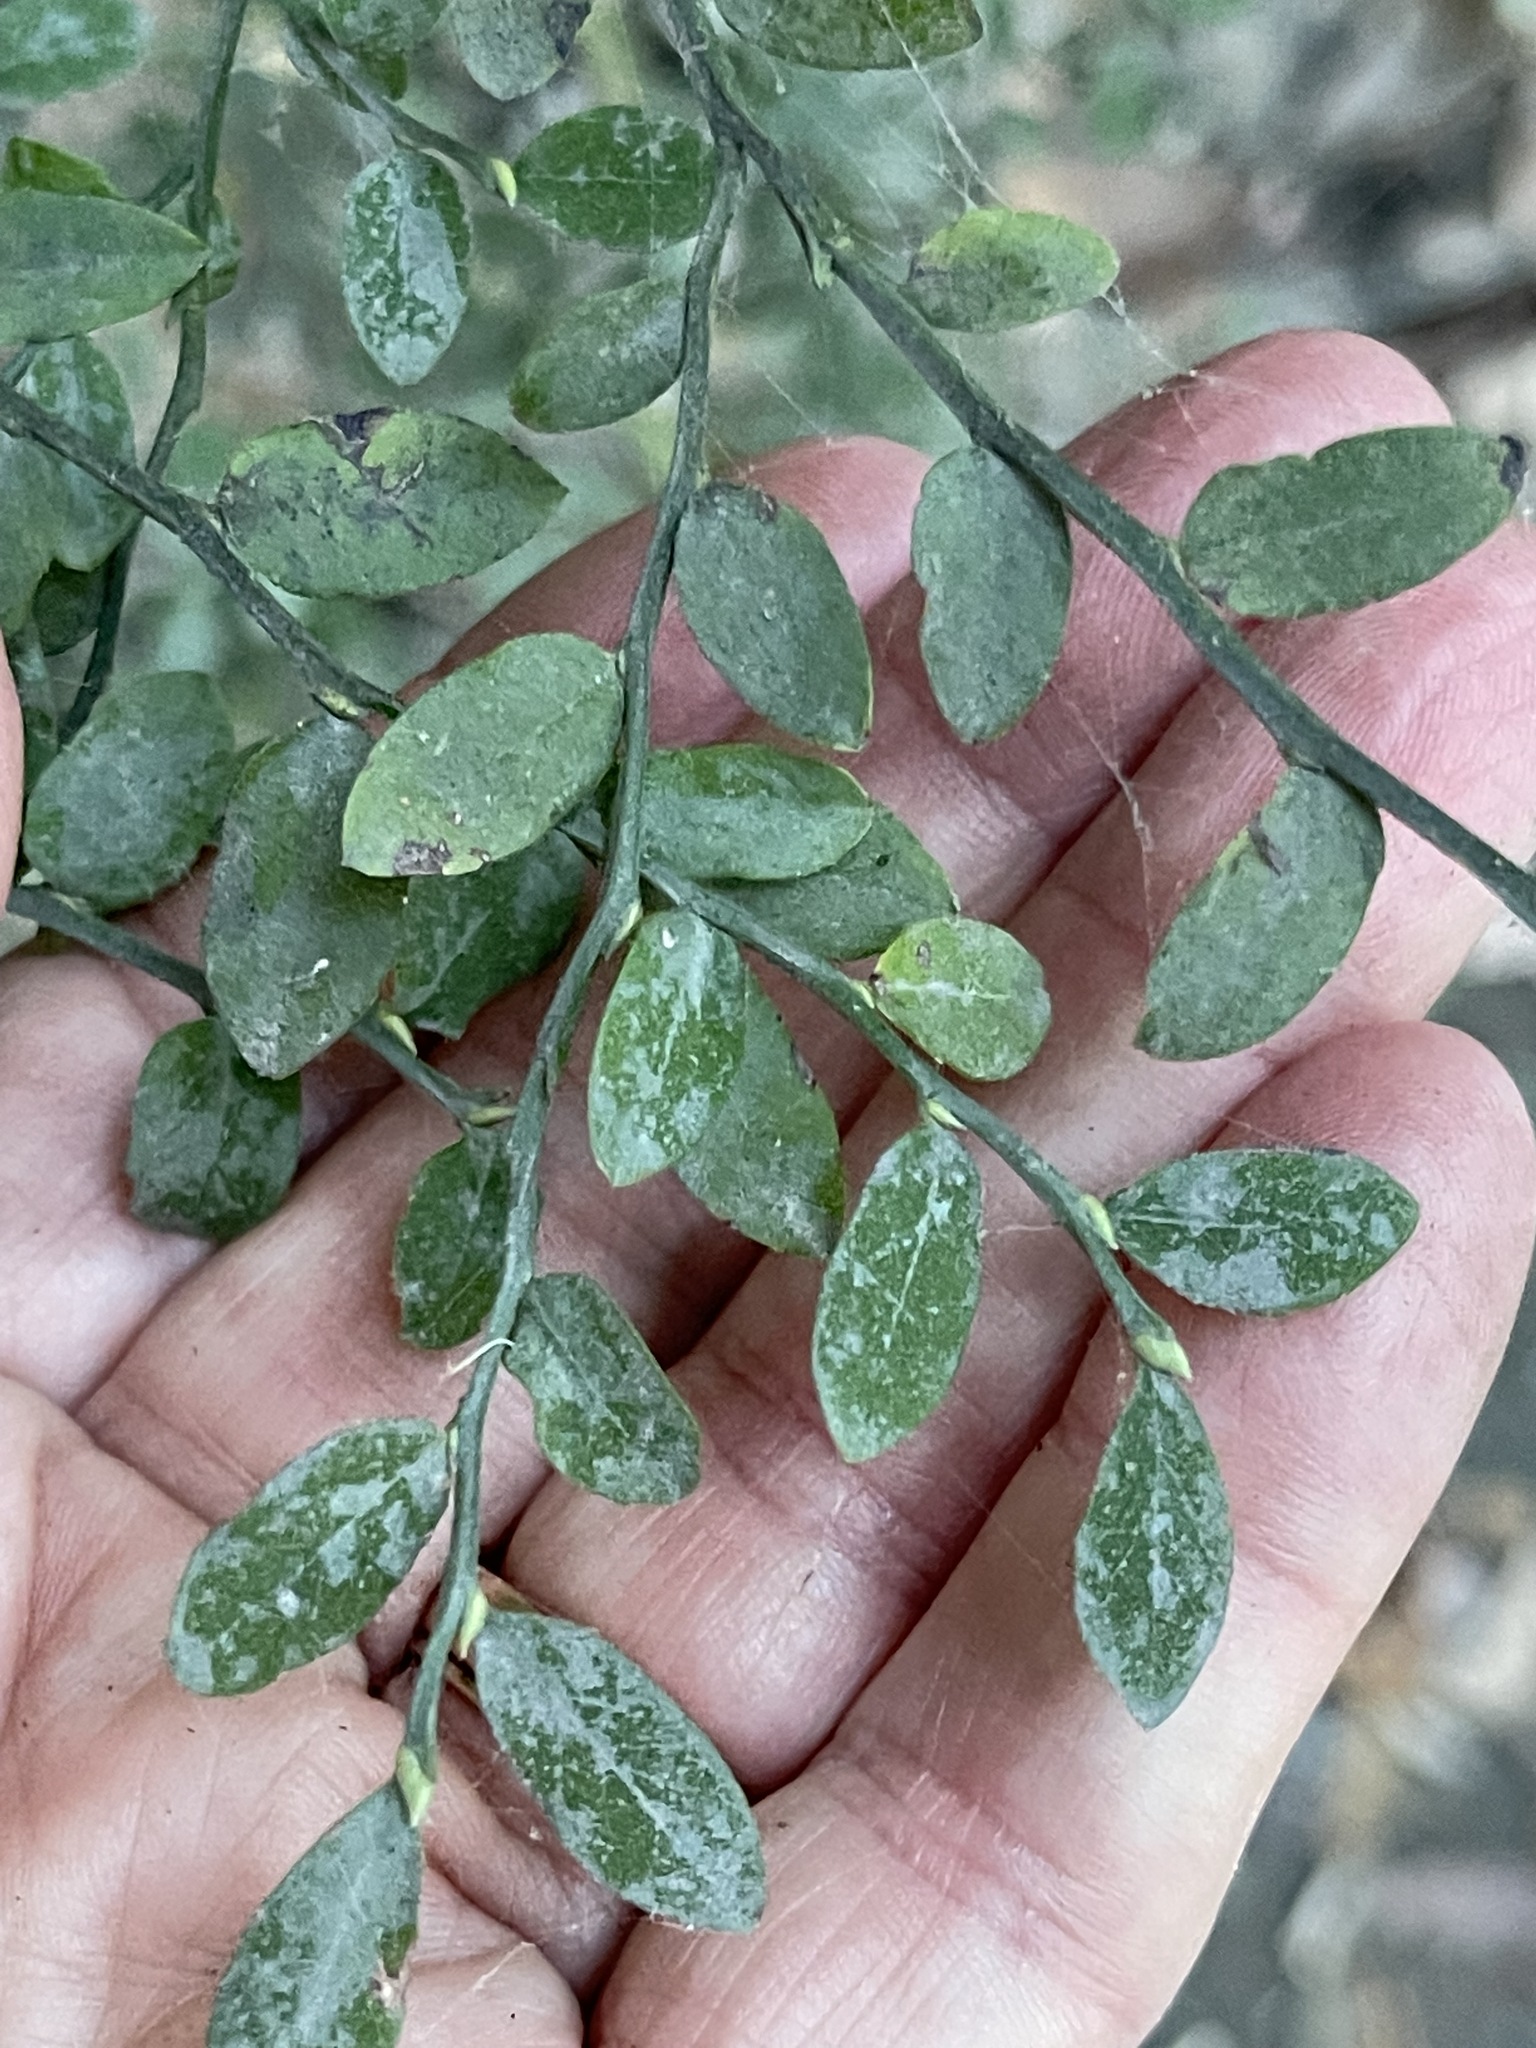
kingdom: Plantae
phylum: Tracheophyta
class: Magnoliopsida
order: Ericales
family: Ericaceae
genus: Vaccinium
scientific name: Vaccinium parvifolium
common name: Red-huckleberry
